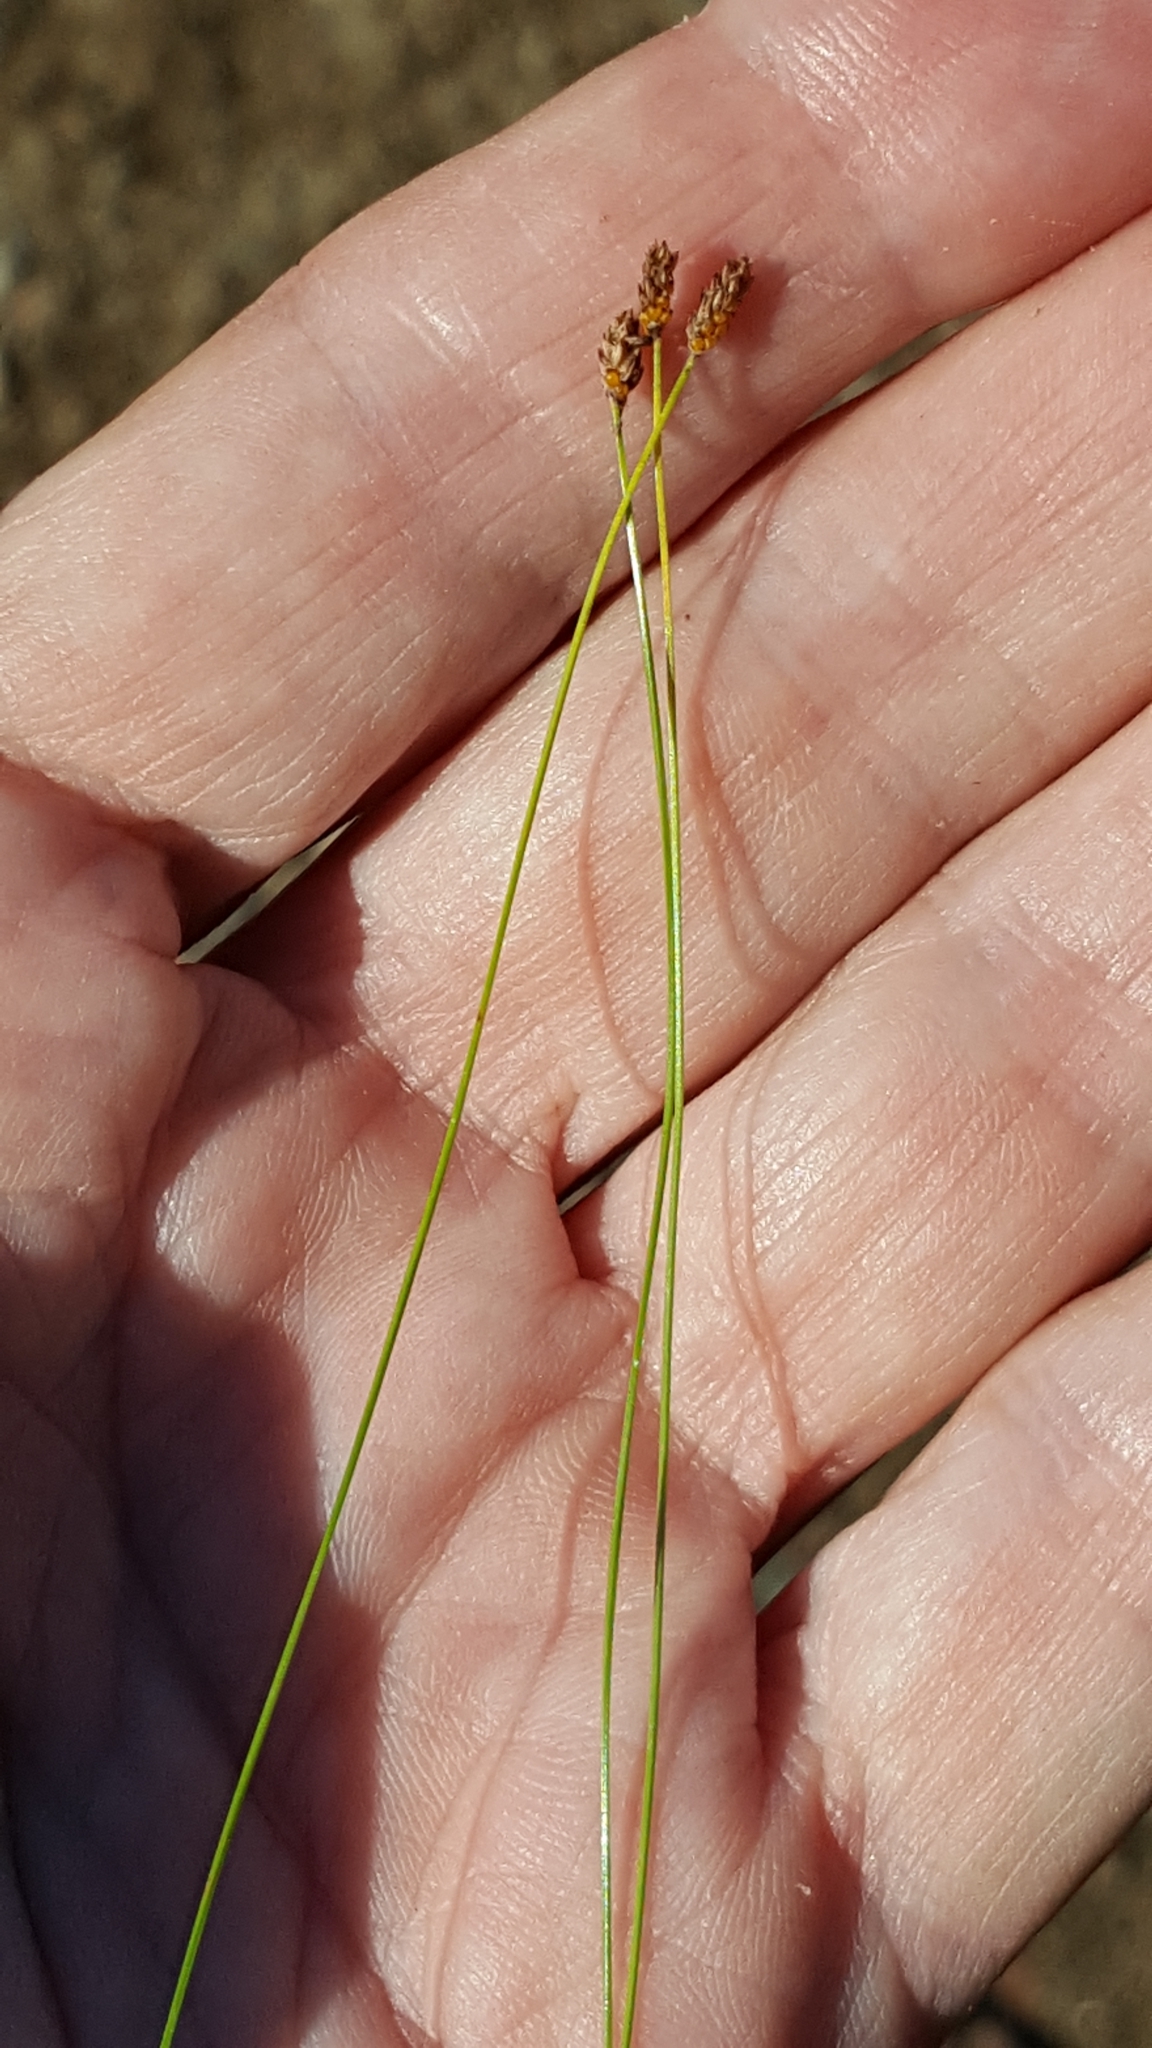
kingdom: Plantae
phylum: Tracheophyta
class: Liliopsida
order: Poales
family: Cyperaceae
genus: Eleocharis
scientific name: Eleocharis nitida
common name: Neat spikerush
